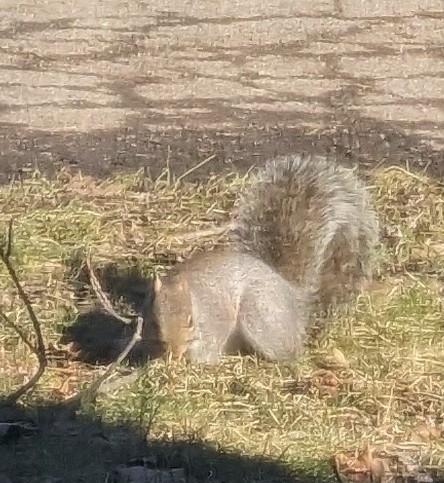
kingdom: Animalia
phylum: Chordata
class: Mammalia
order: Rodentia
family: Sciuridae
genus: Sciurus
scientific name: Sciurus carolinensis
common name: Eastern gray squirrel
